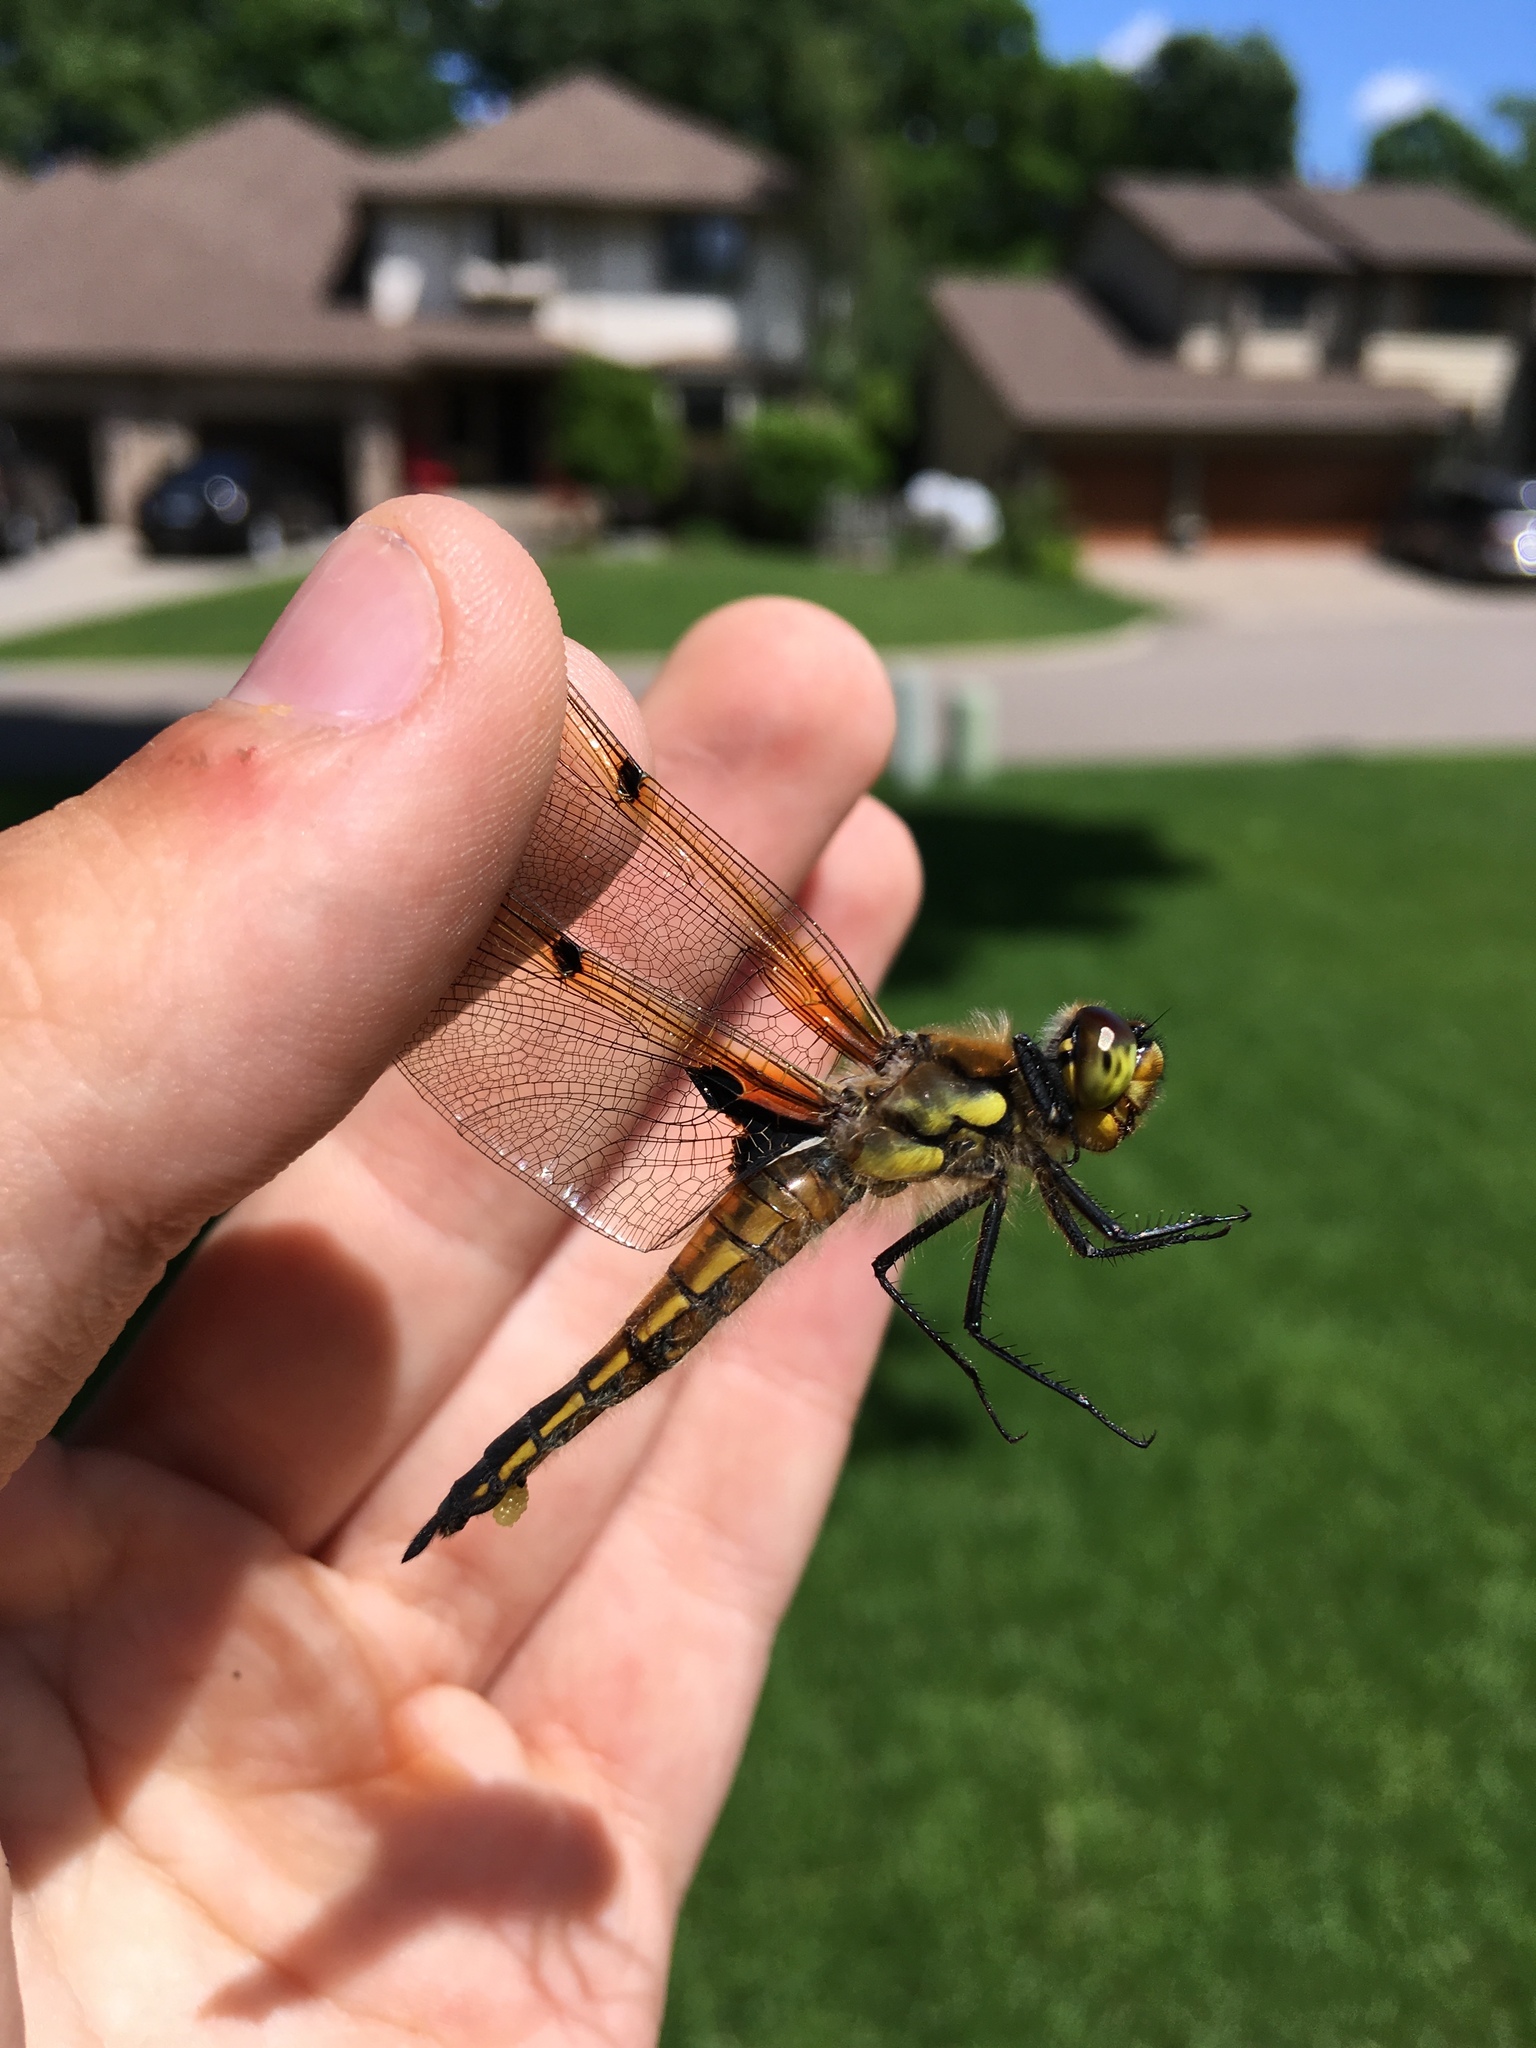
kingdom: Animalia
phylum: Arthropoda
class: Insecta
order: Odonata
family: Libellulidae
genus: Libellula
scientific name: Libellula quadrimaculata
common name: Four-spotted chaser
